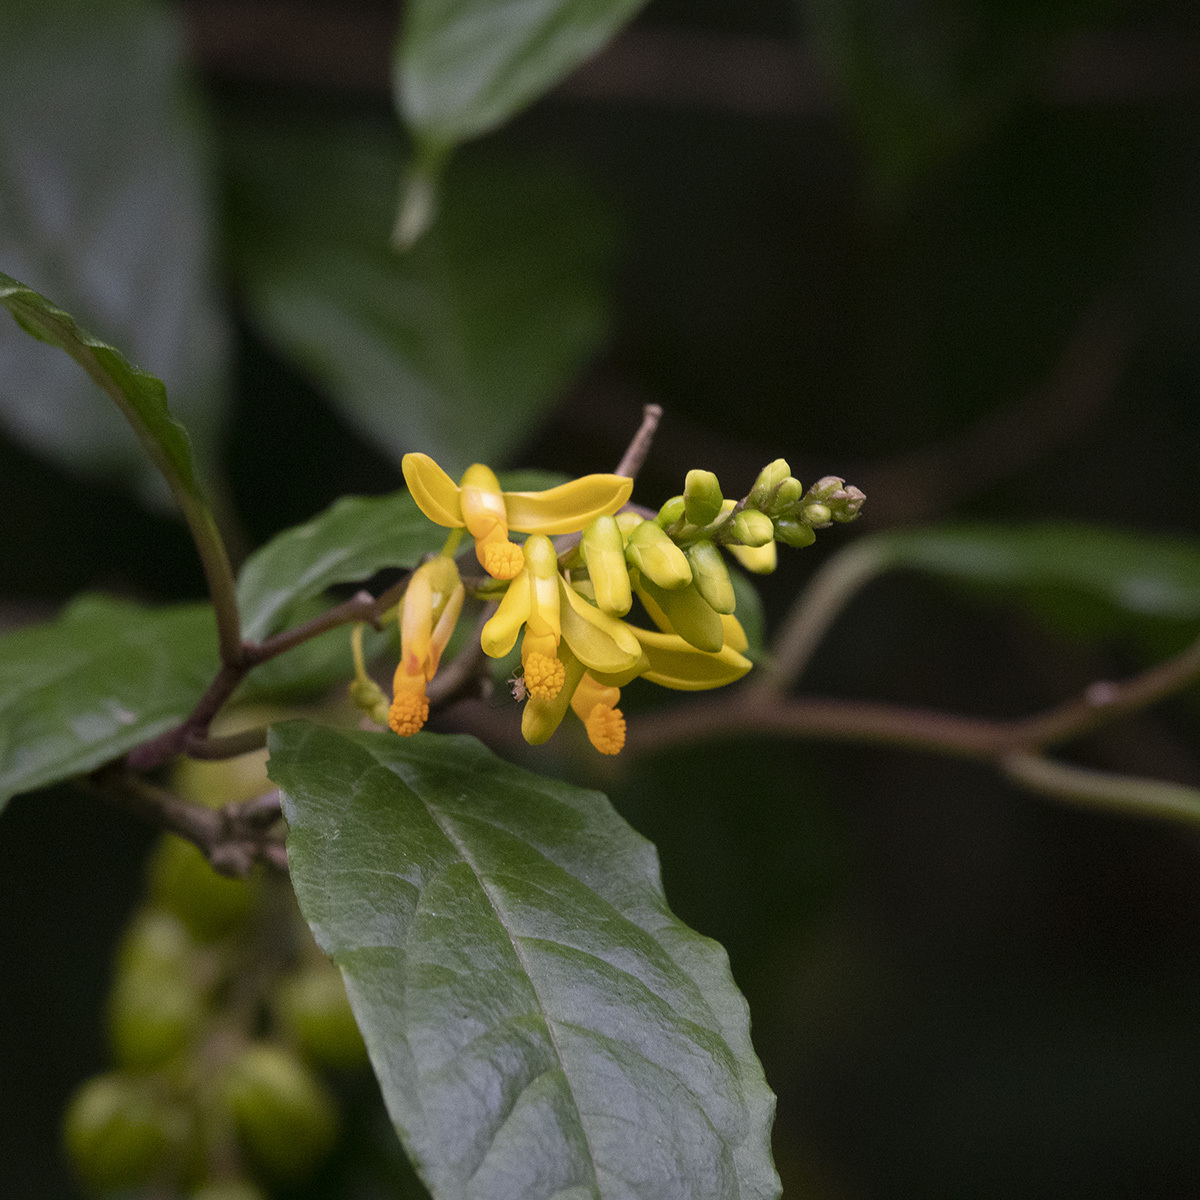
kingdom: Plantae
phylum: Tracheophyta
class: Magnoliopsida
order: Fabales
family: Polygalaceae
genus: Polygala
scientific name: Polygala arillata
